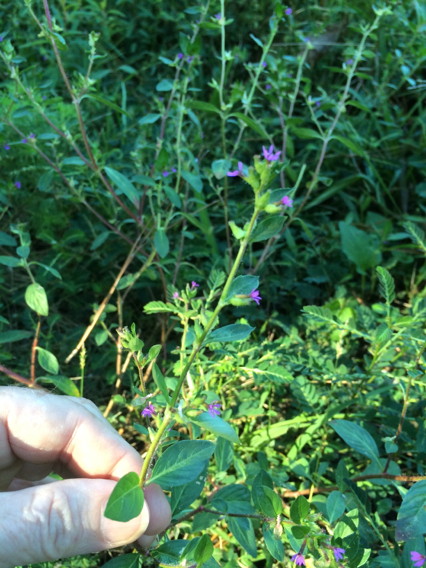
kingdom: Plantae
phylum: Tracheophyta
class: Magnoliopsida
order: Myrtales
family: Lythraceae
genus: Cuphea
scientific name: Cuphea carthagenensis
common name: Colombian waxweed
